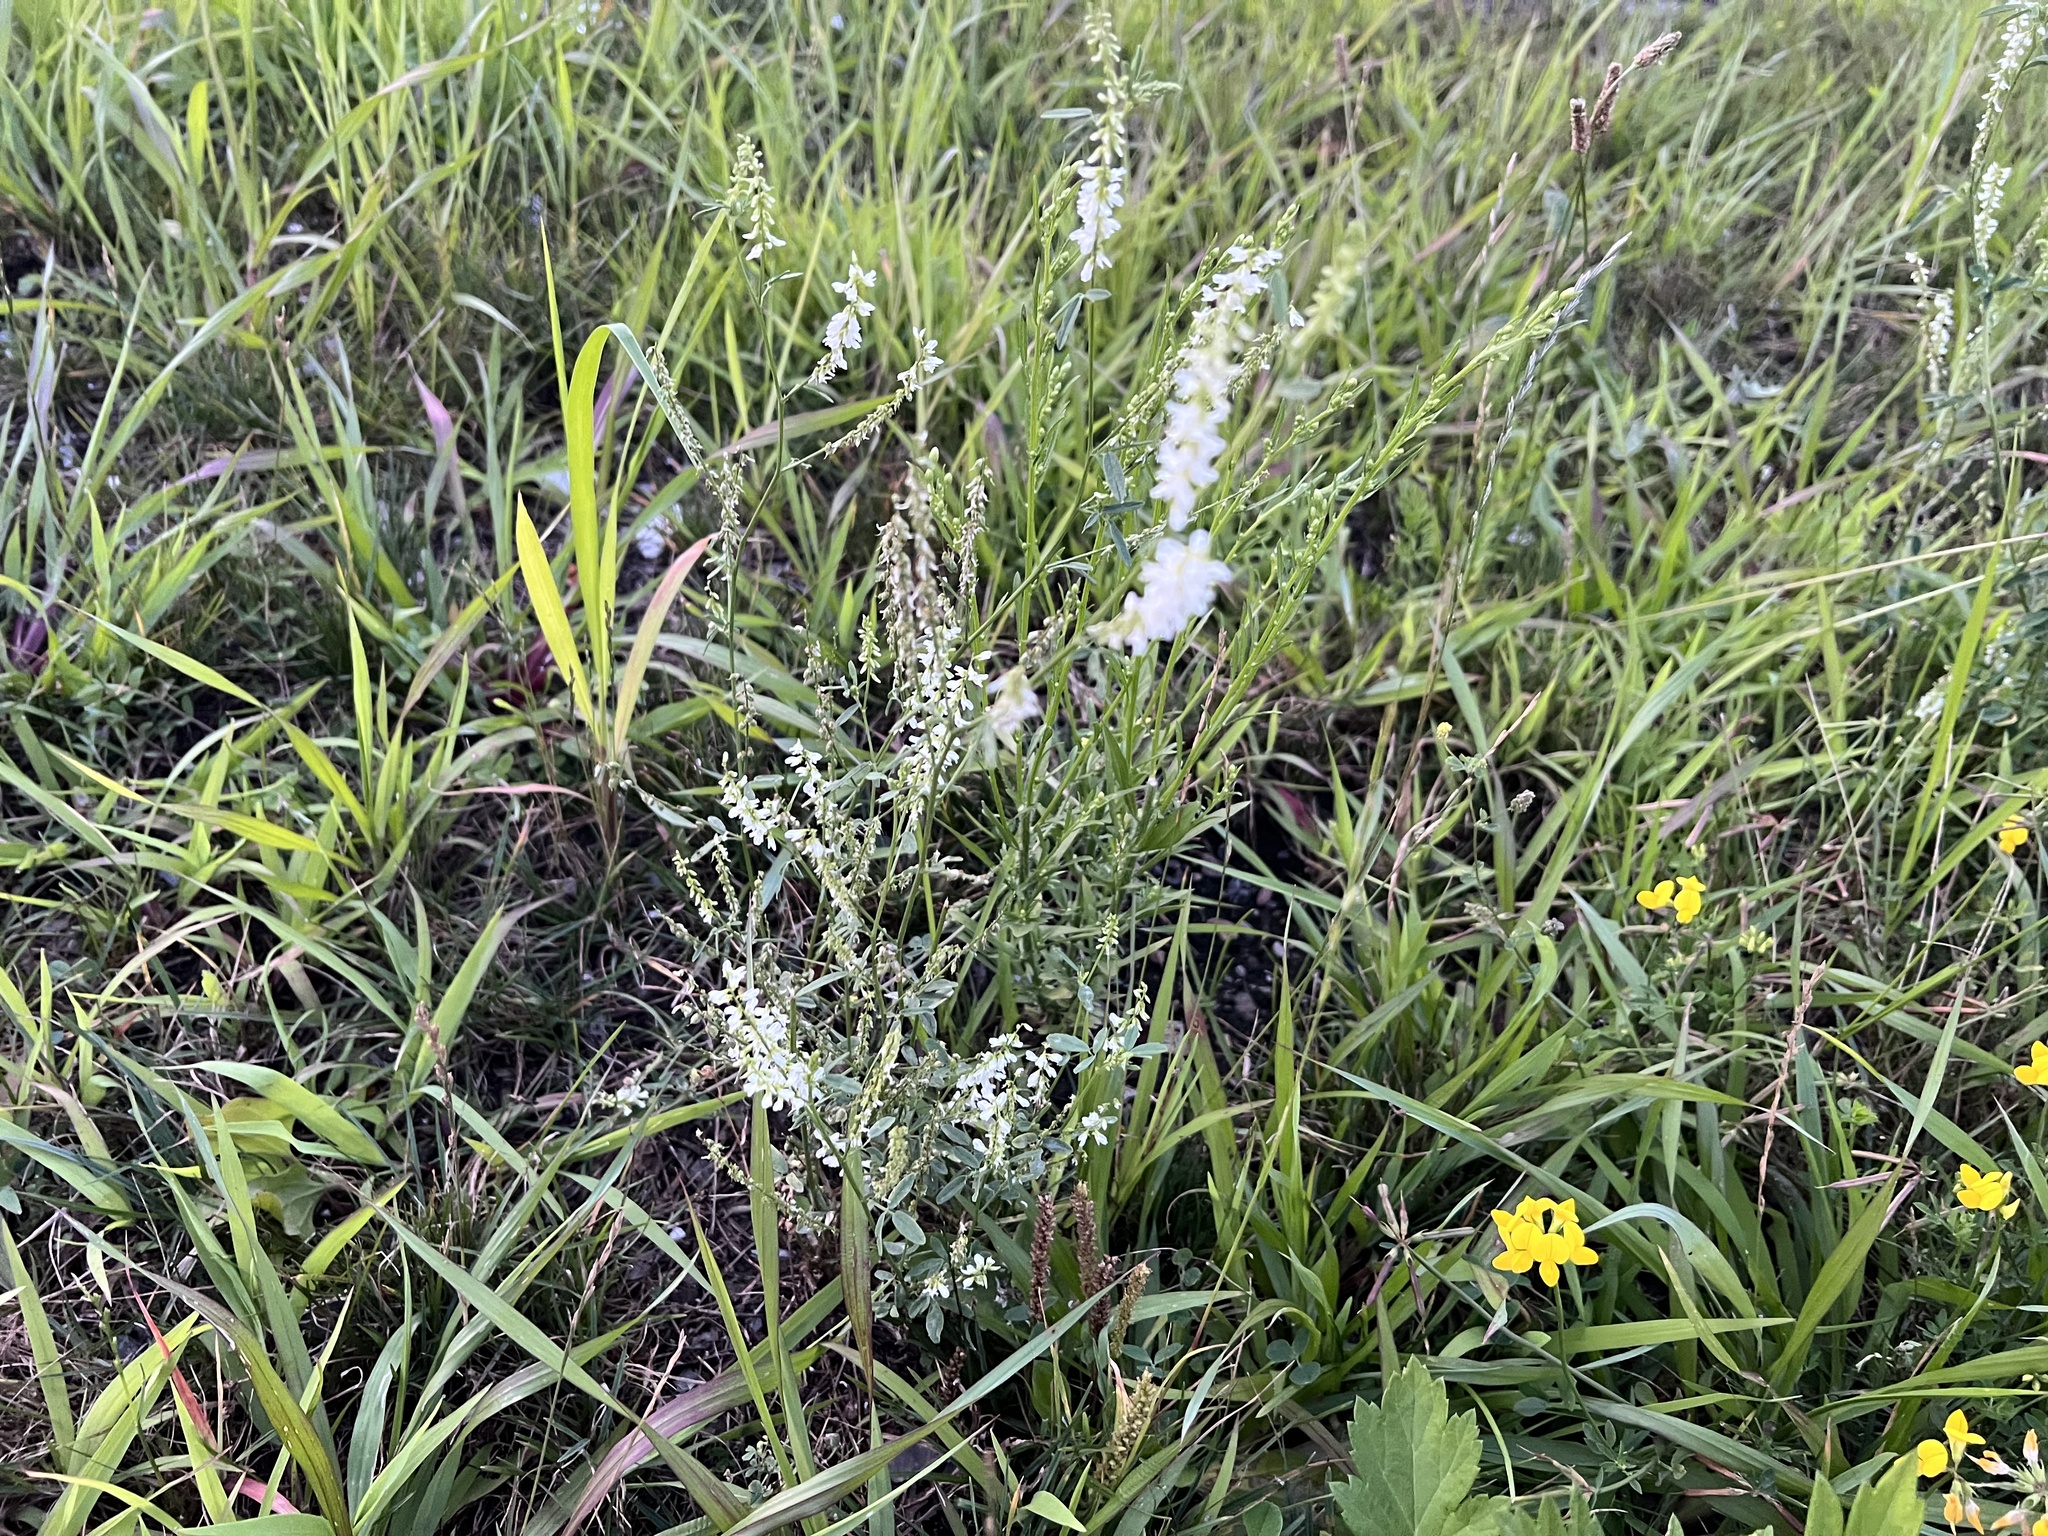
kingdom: Plantae
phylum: Tracheophyta
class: Magnoliopsida
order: Fabales
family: Fabaceae
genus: Melilotus
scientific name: Melilotus albus
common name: White melilot
